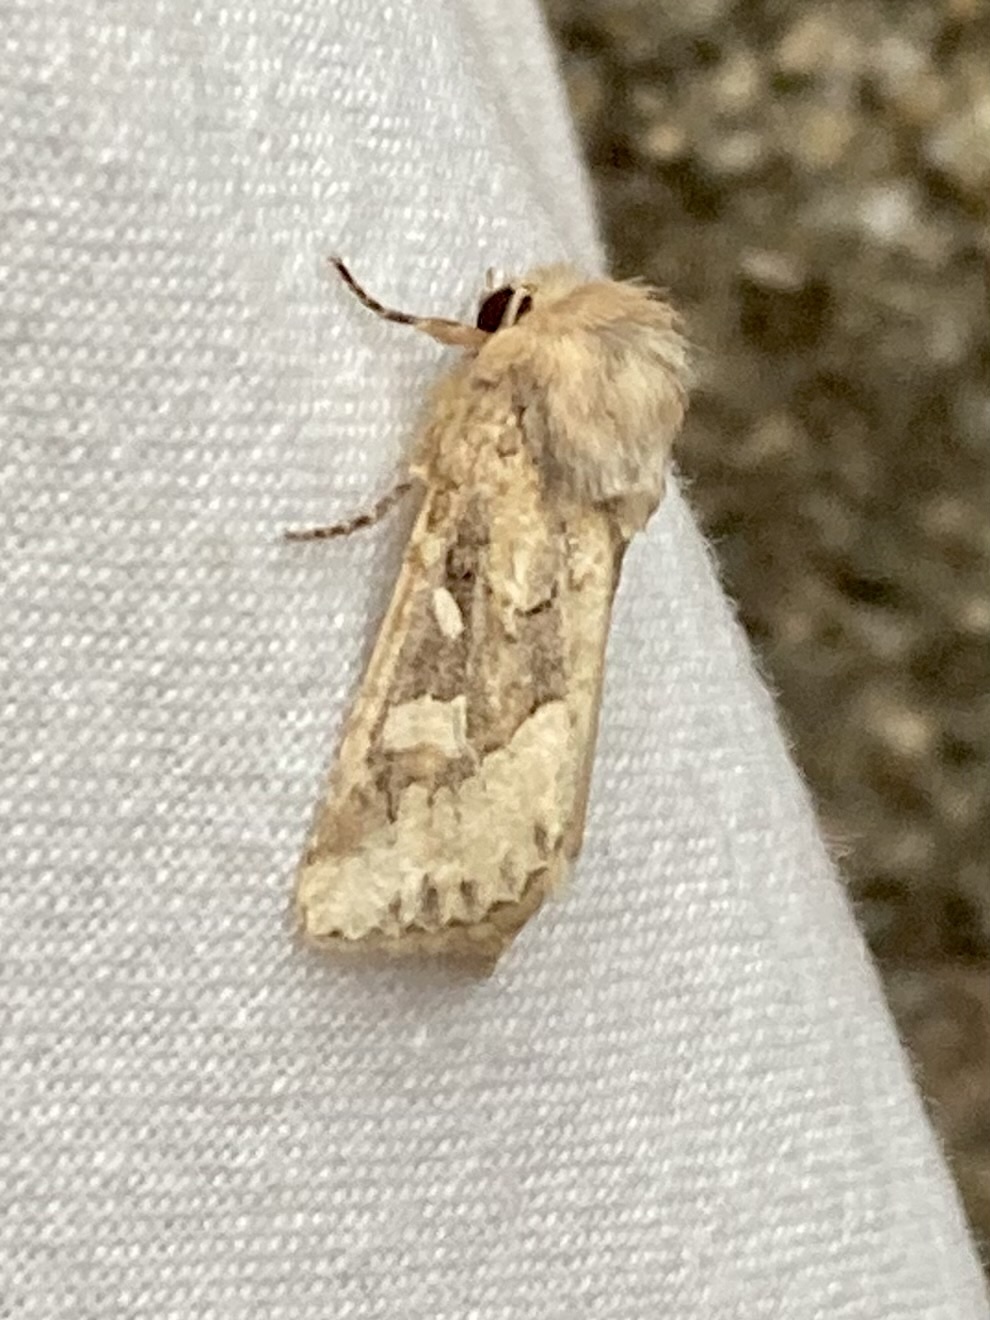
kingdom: Animalia
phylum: Arthropoda
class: Insecta
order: Lepidoptera
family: Noctuidae
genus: Luperina
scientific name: Luperina dumerilii
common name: Dumeril's rustic
